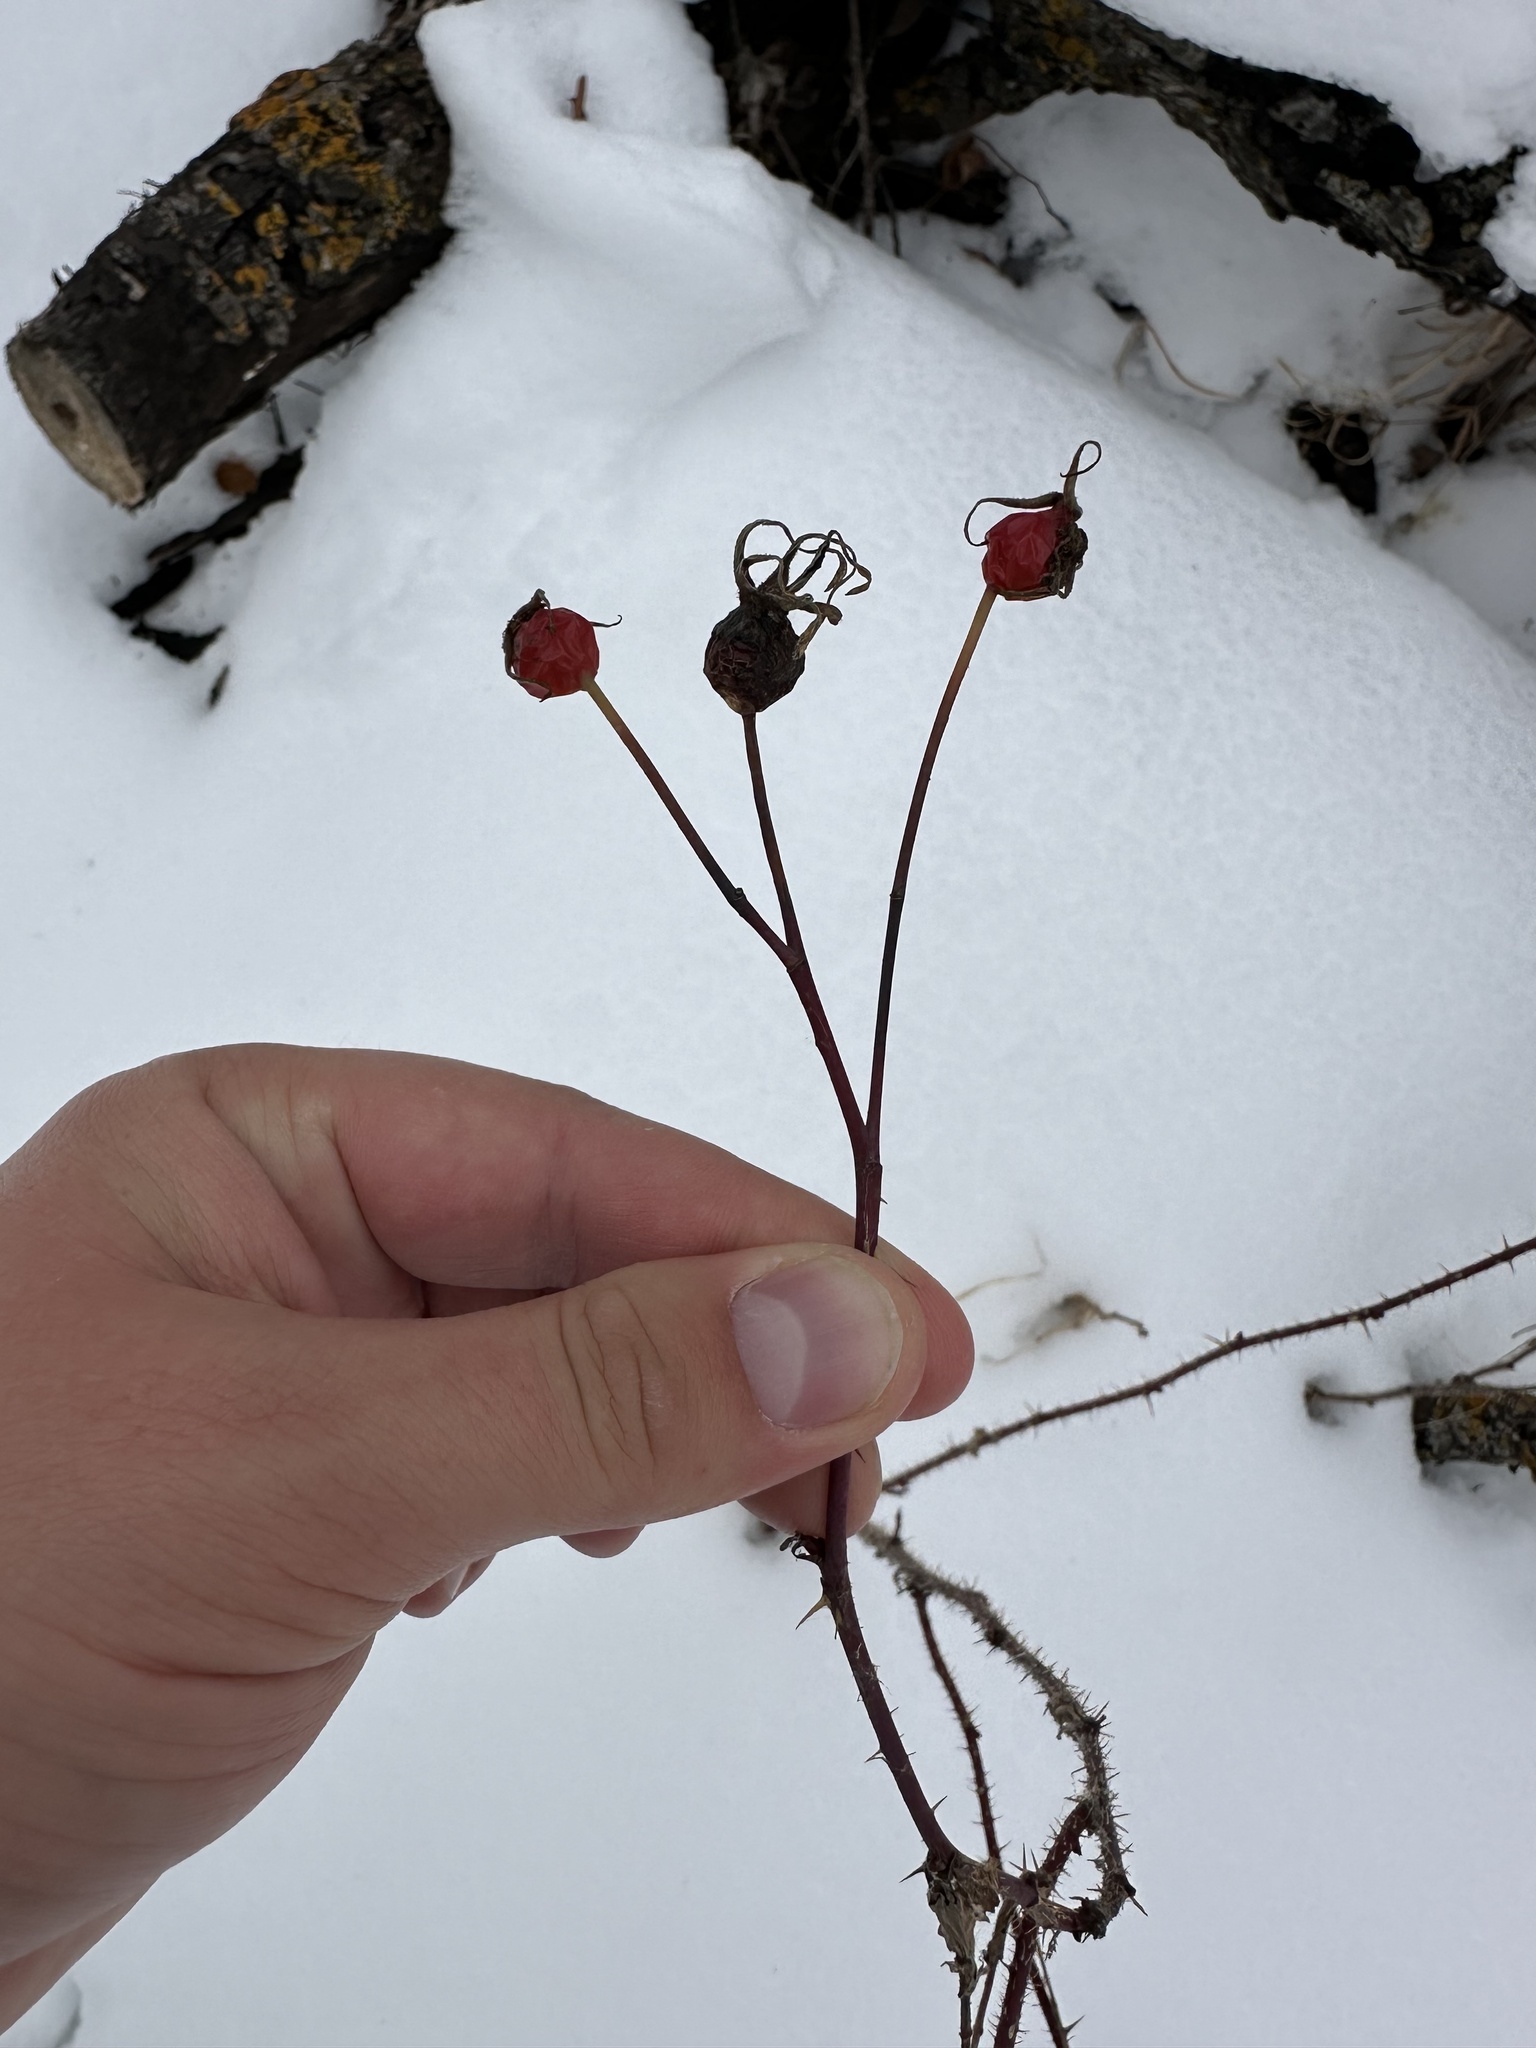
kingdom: Plantae
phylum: Tracheophyta
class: Magnoliopsida
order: Rosales
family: Rosaceae
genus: Rosa
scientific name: Rosa woodsii
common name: Woods's rose
